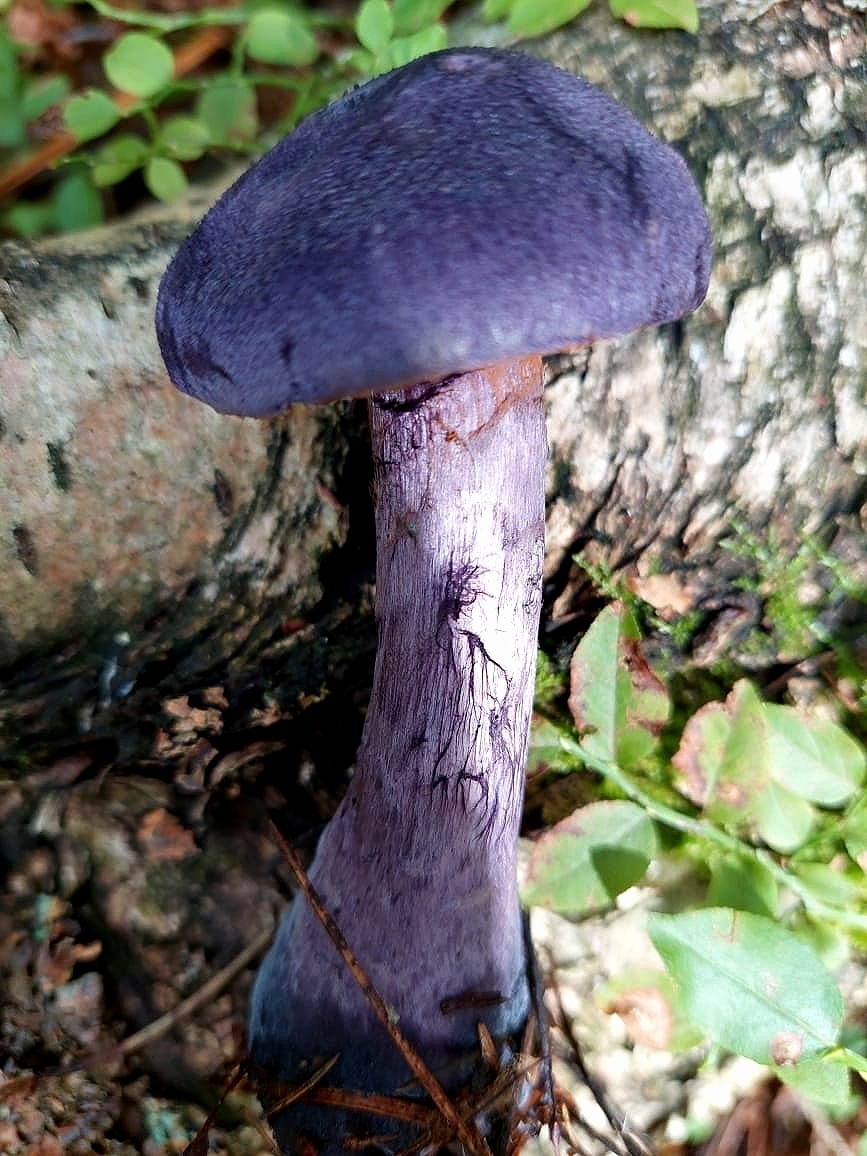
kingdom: Fungi
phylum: Basidiomycota
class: Agaricomycetes
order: Agaricales
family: Cortinariaceae
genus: Cortinarius
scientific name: Cortinarius violaceus
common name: Violet webcap
